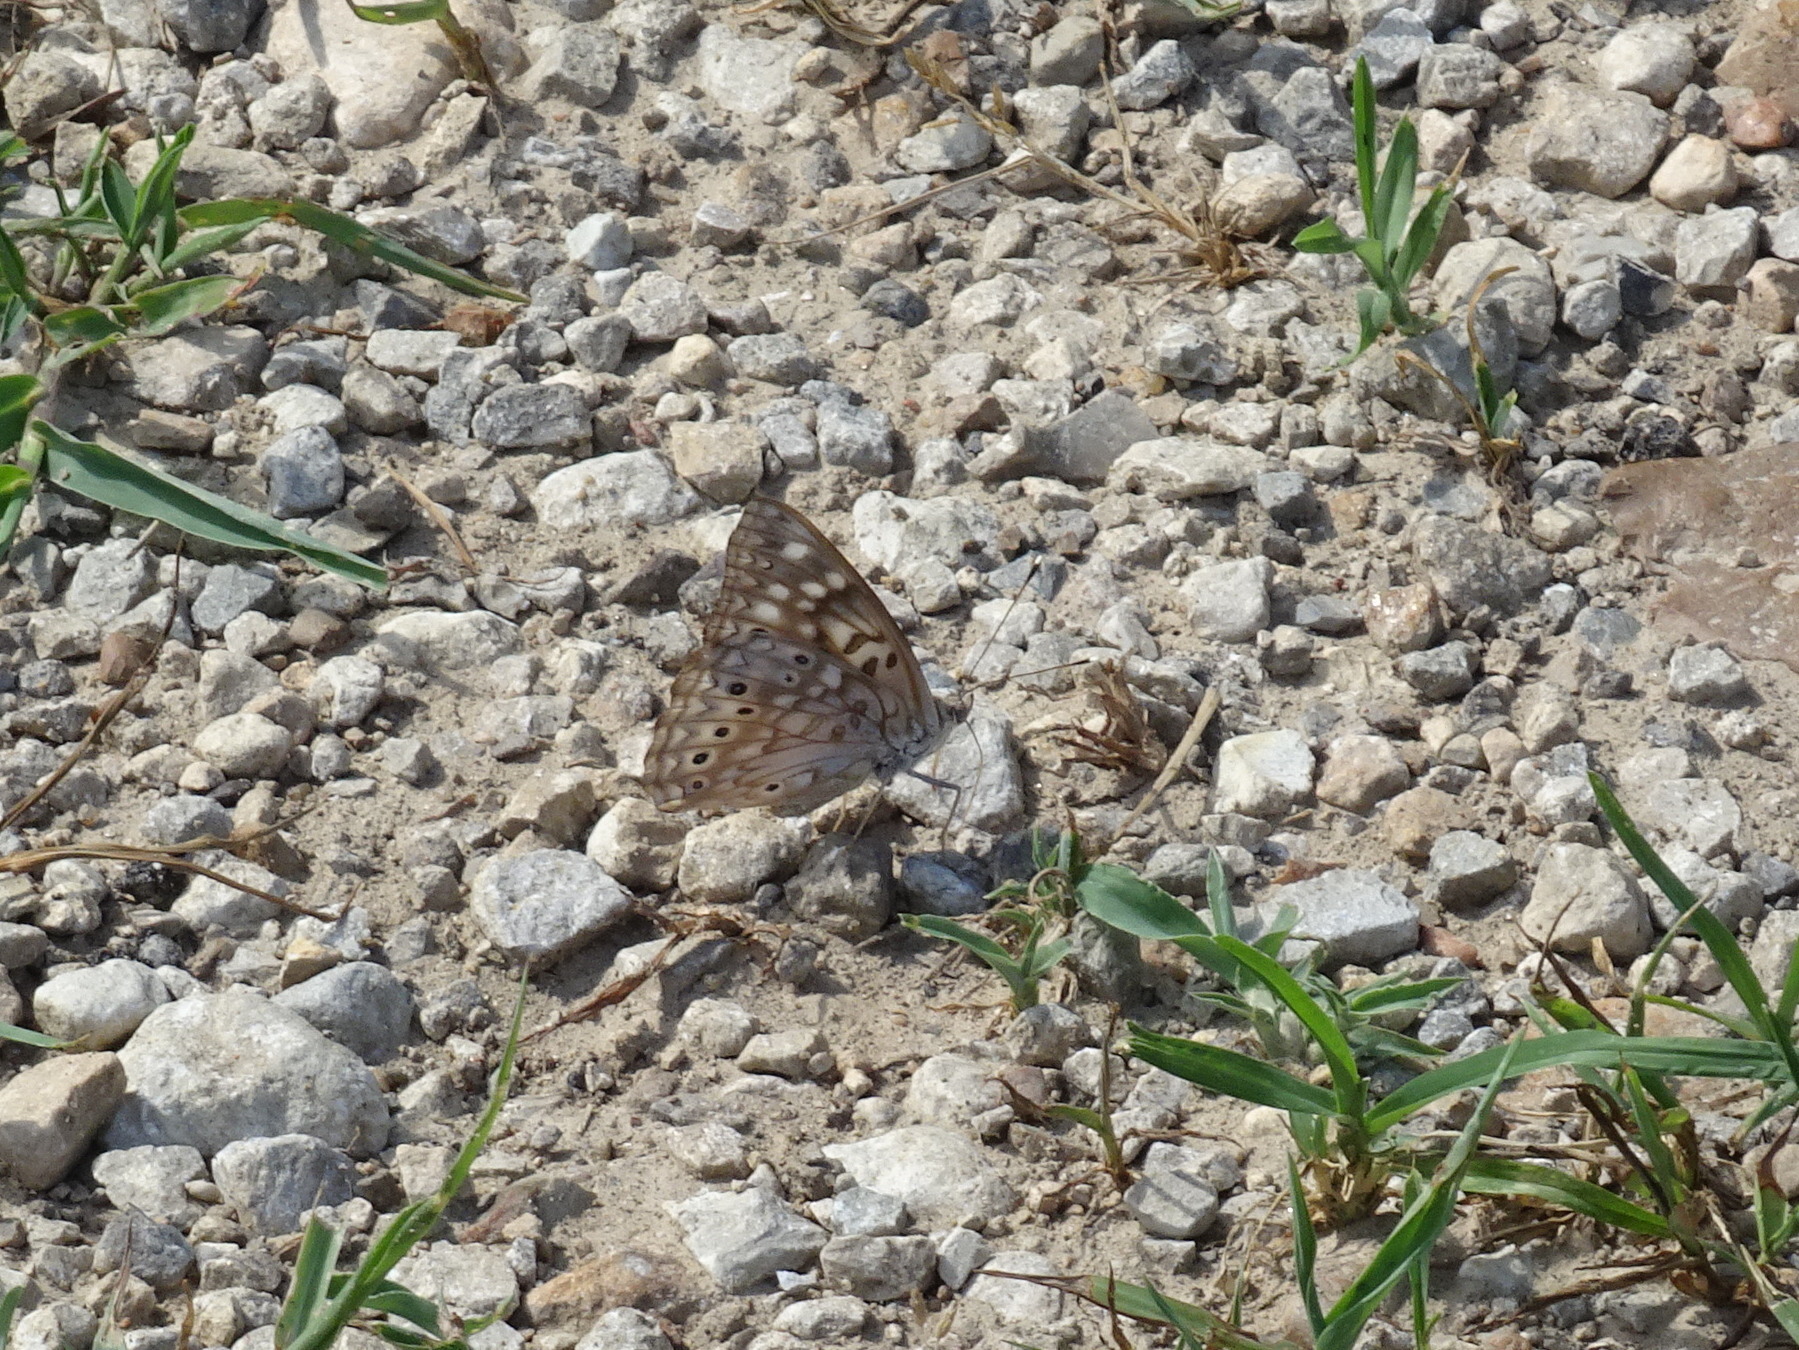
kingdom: Animalia
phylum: Arthropoda
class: Insecta
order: Lepidoptera
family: Nymphalidae
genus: Asterocampa
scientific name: Asterocampa celtis
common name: Hackberry emperor
